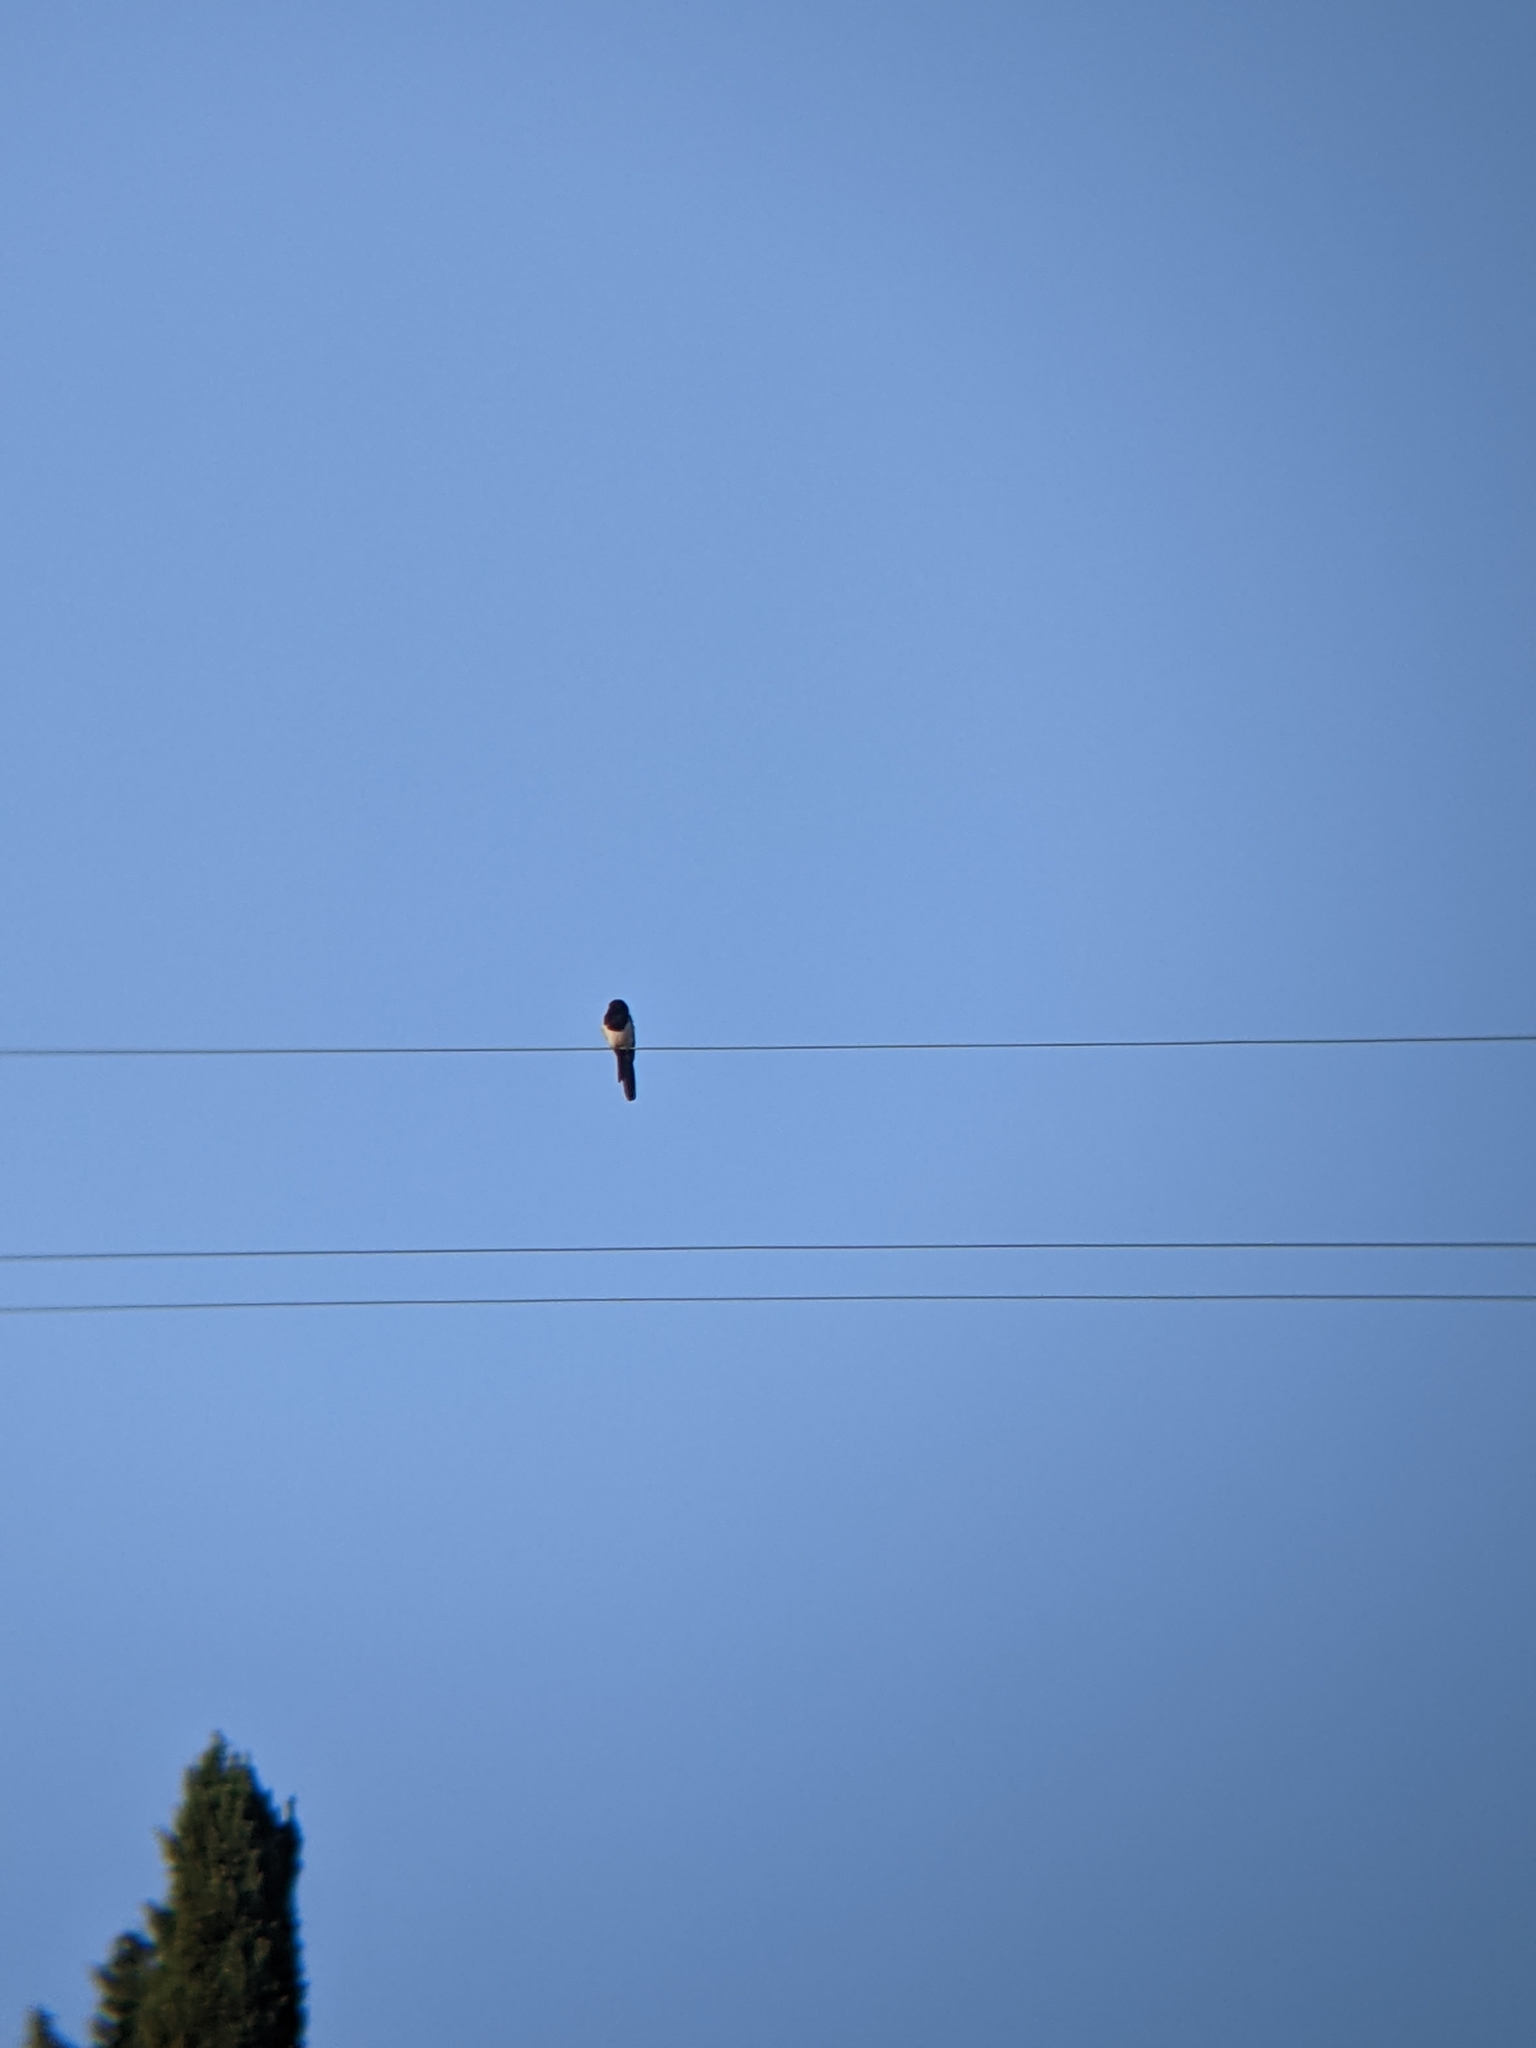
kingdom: Animalia
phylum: Chordata
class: Aves
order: Passeriformes
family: Corvidae
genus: Pica
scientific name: Pica pica
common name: Eurasian magpie
